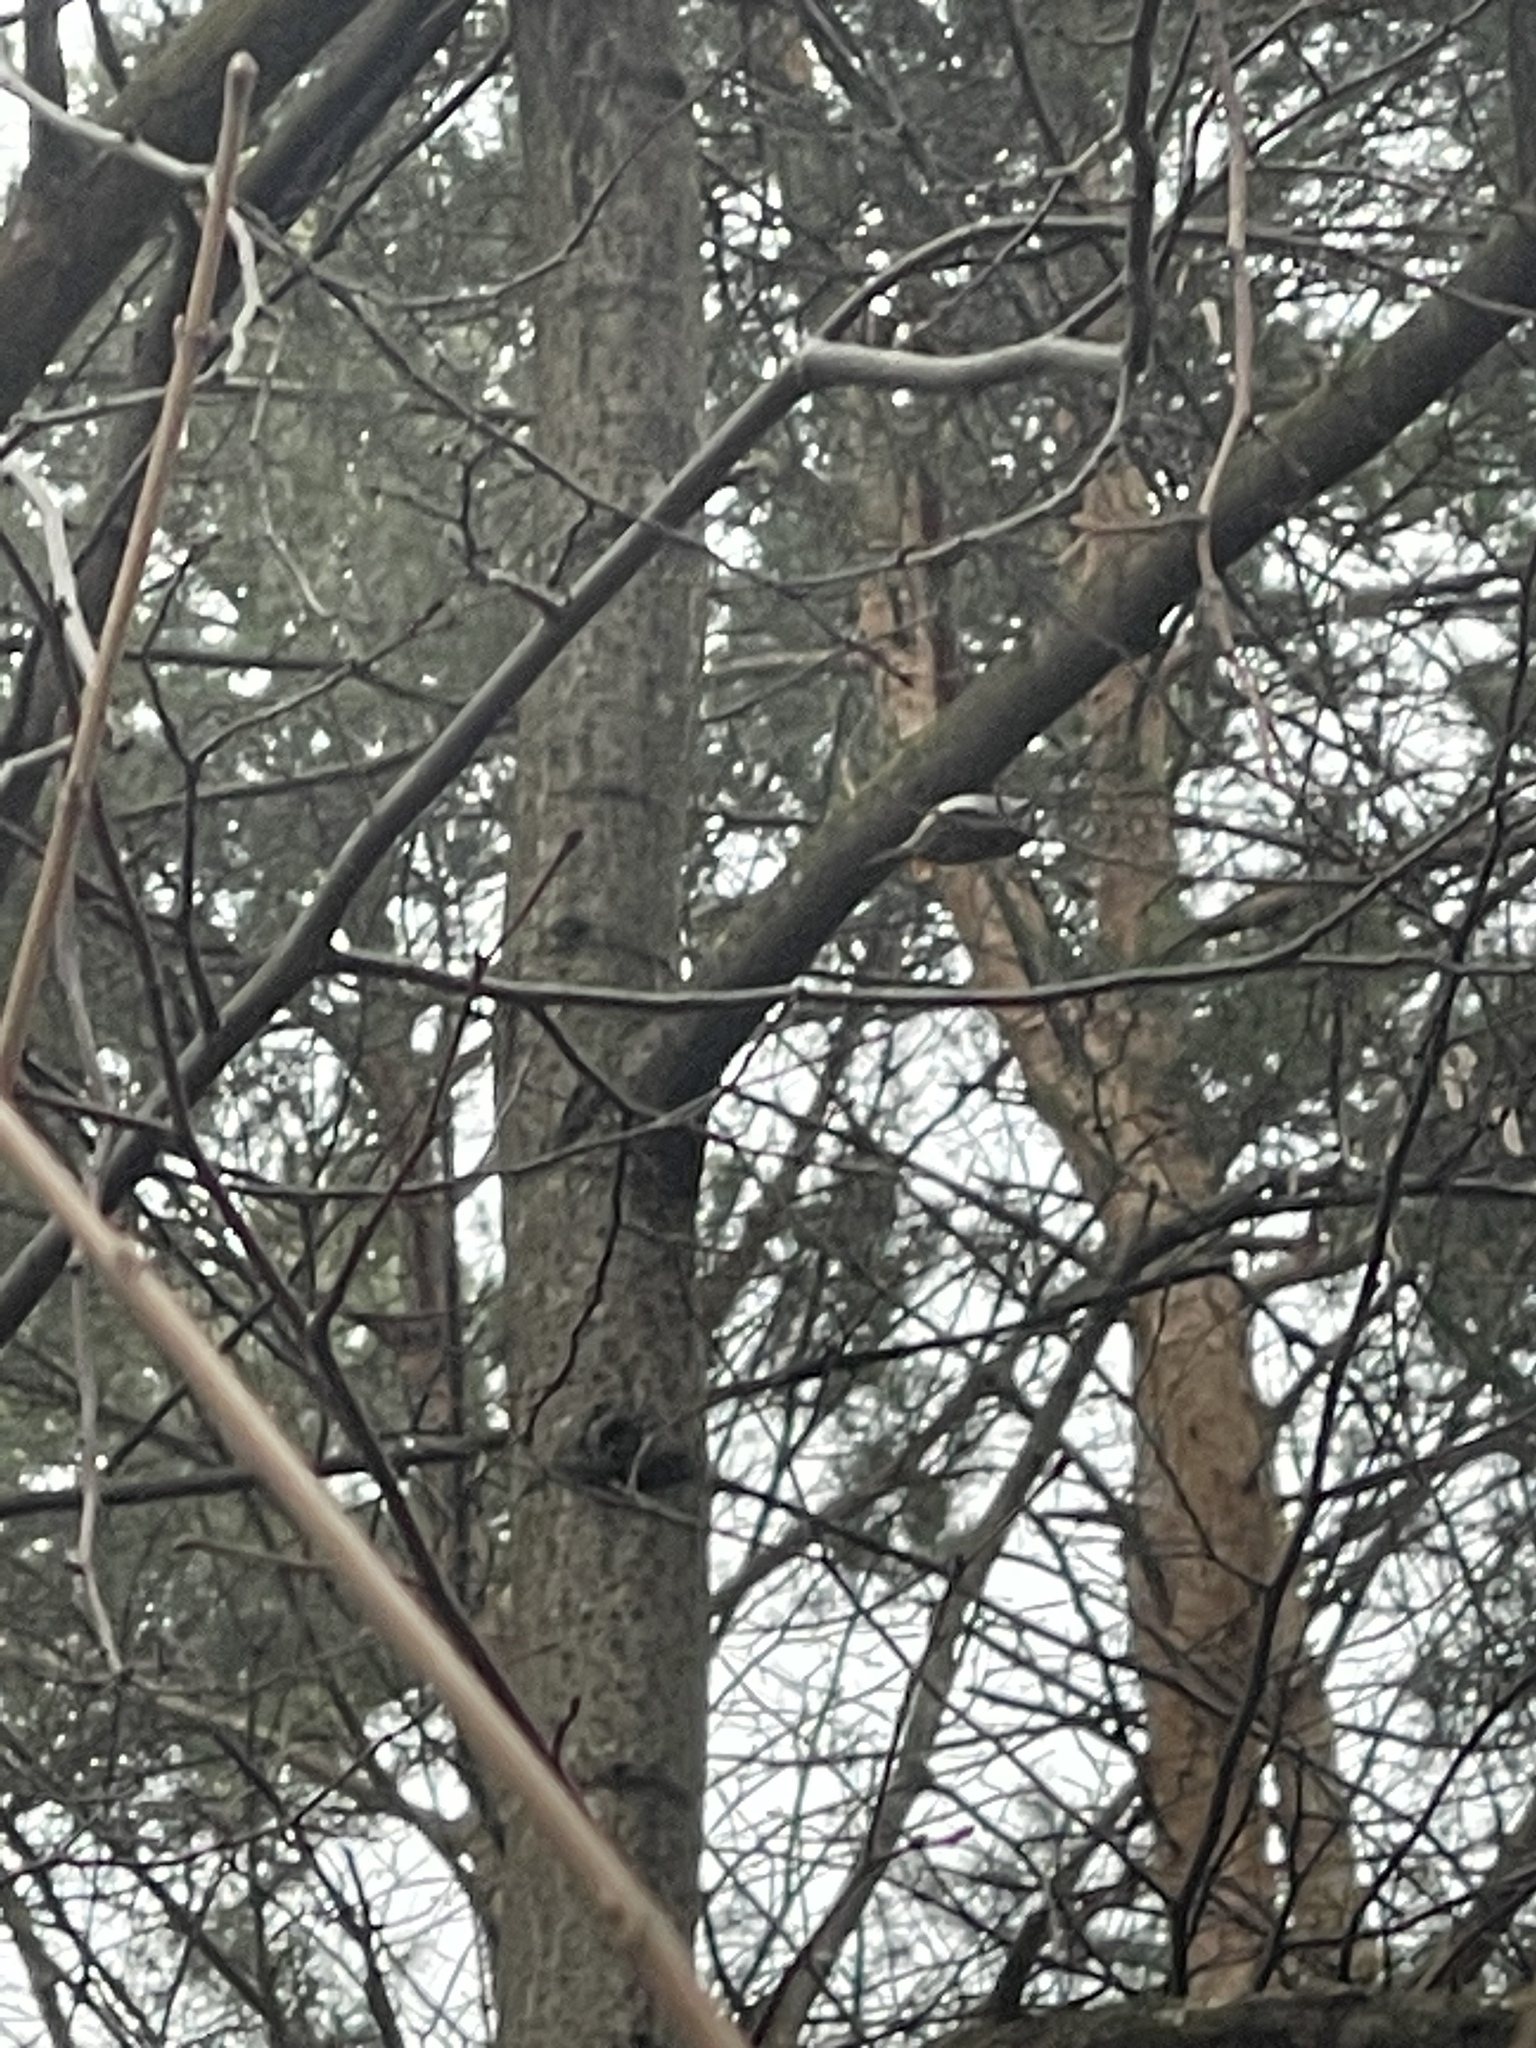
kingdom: Animalia
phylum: Chordata
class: Aves
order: Passeriformes
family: Certhiidae
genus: Certhia
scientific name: Certhia familiaris
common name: Eurasian treecreeper
